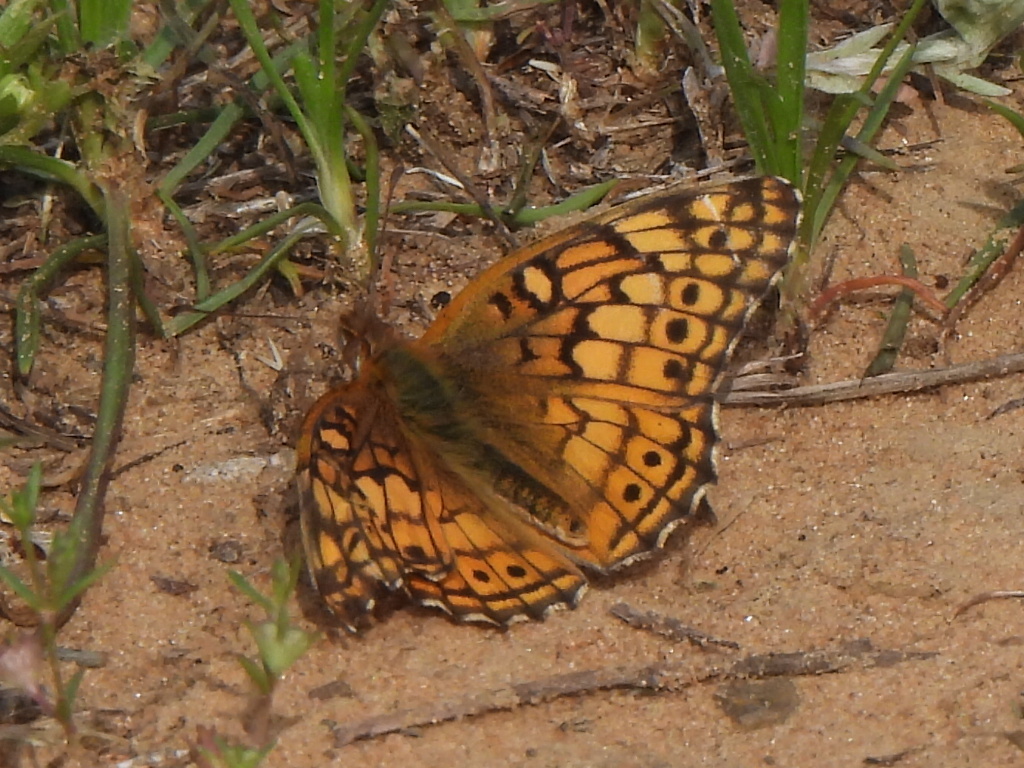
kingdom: Animalia
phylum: Arthropoda
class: Insecta
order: Lepidoptera
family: Nymphalidae
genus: Euptoieta
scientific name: Euptoieta claudia
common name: Variegated fritillary
